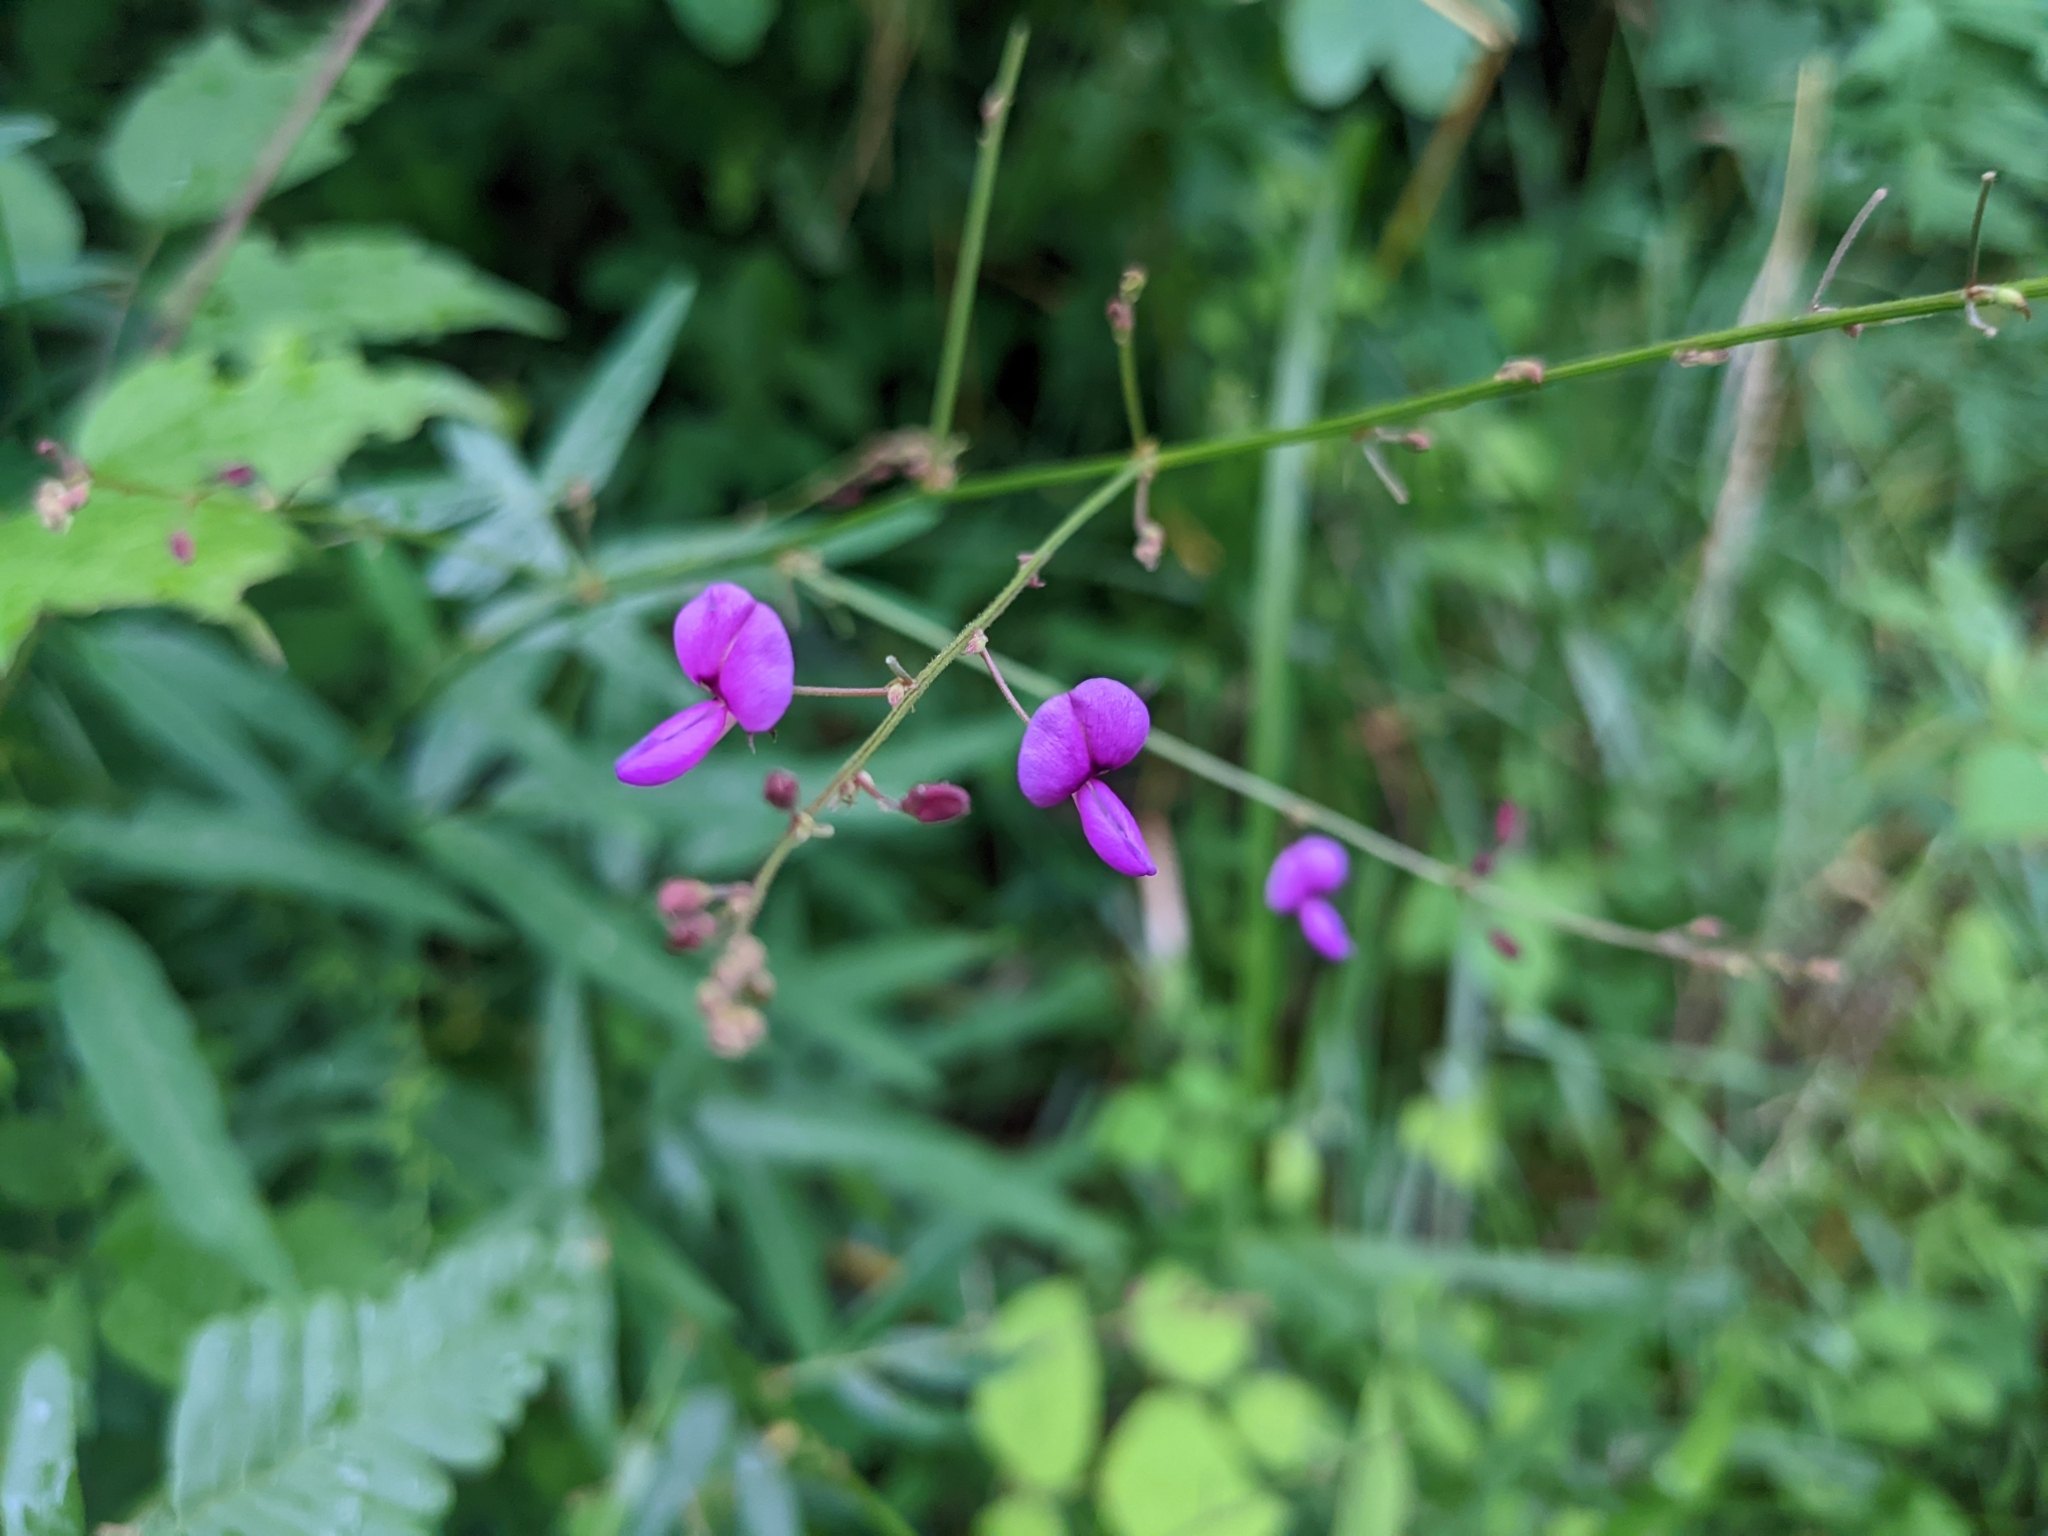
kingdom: Plantae
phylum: Tracheophyta
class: Magnoliopsida
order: Fabales
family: Fabaceae
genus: Desmodium
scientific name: Desmodium paniculatum
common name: Panicled tick-clover
